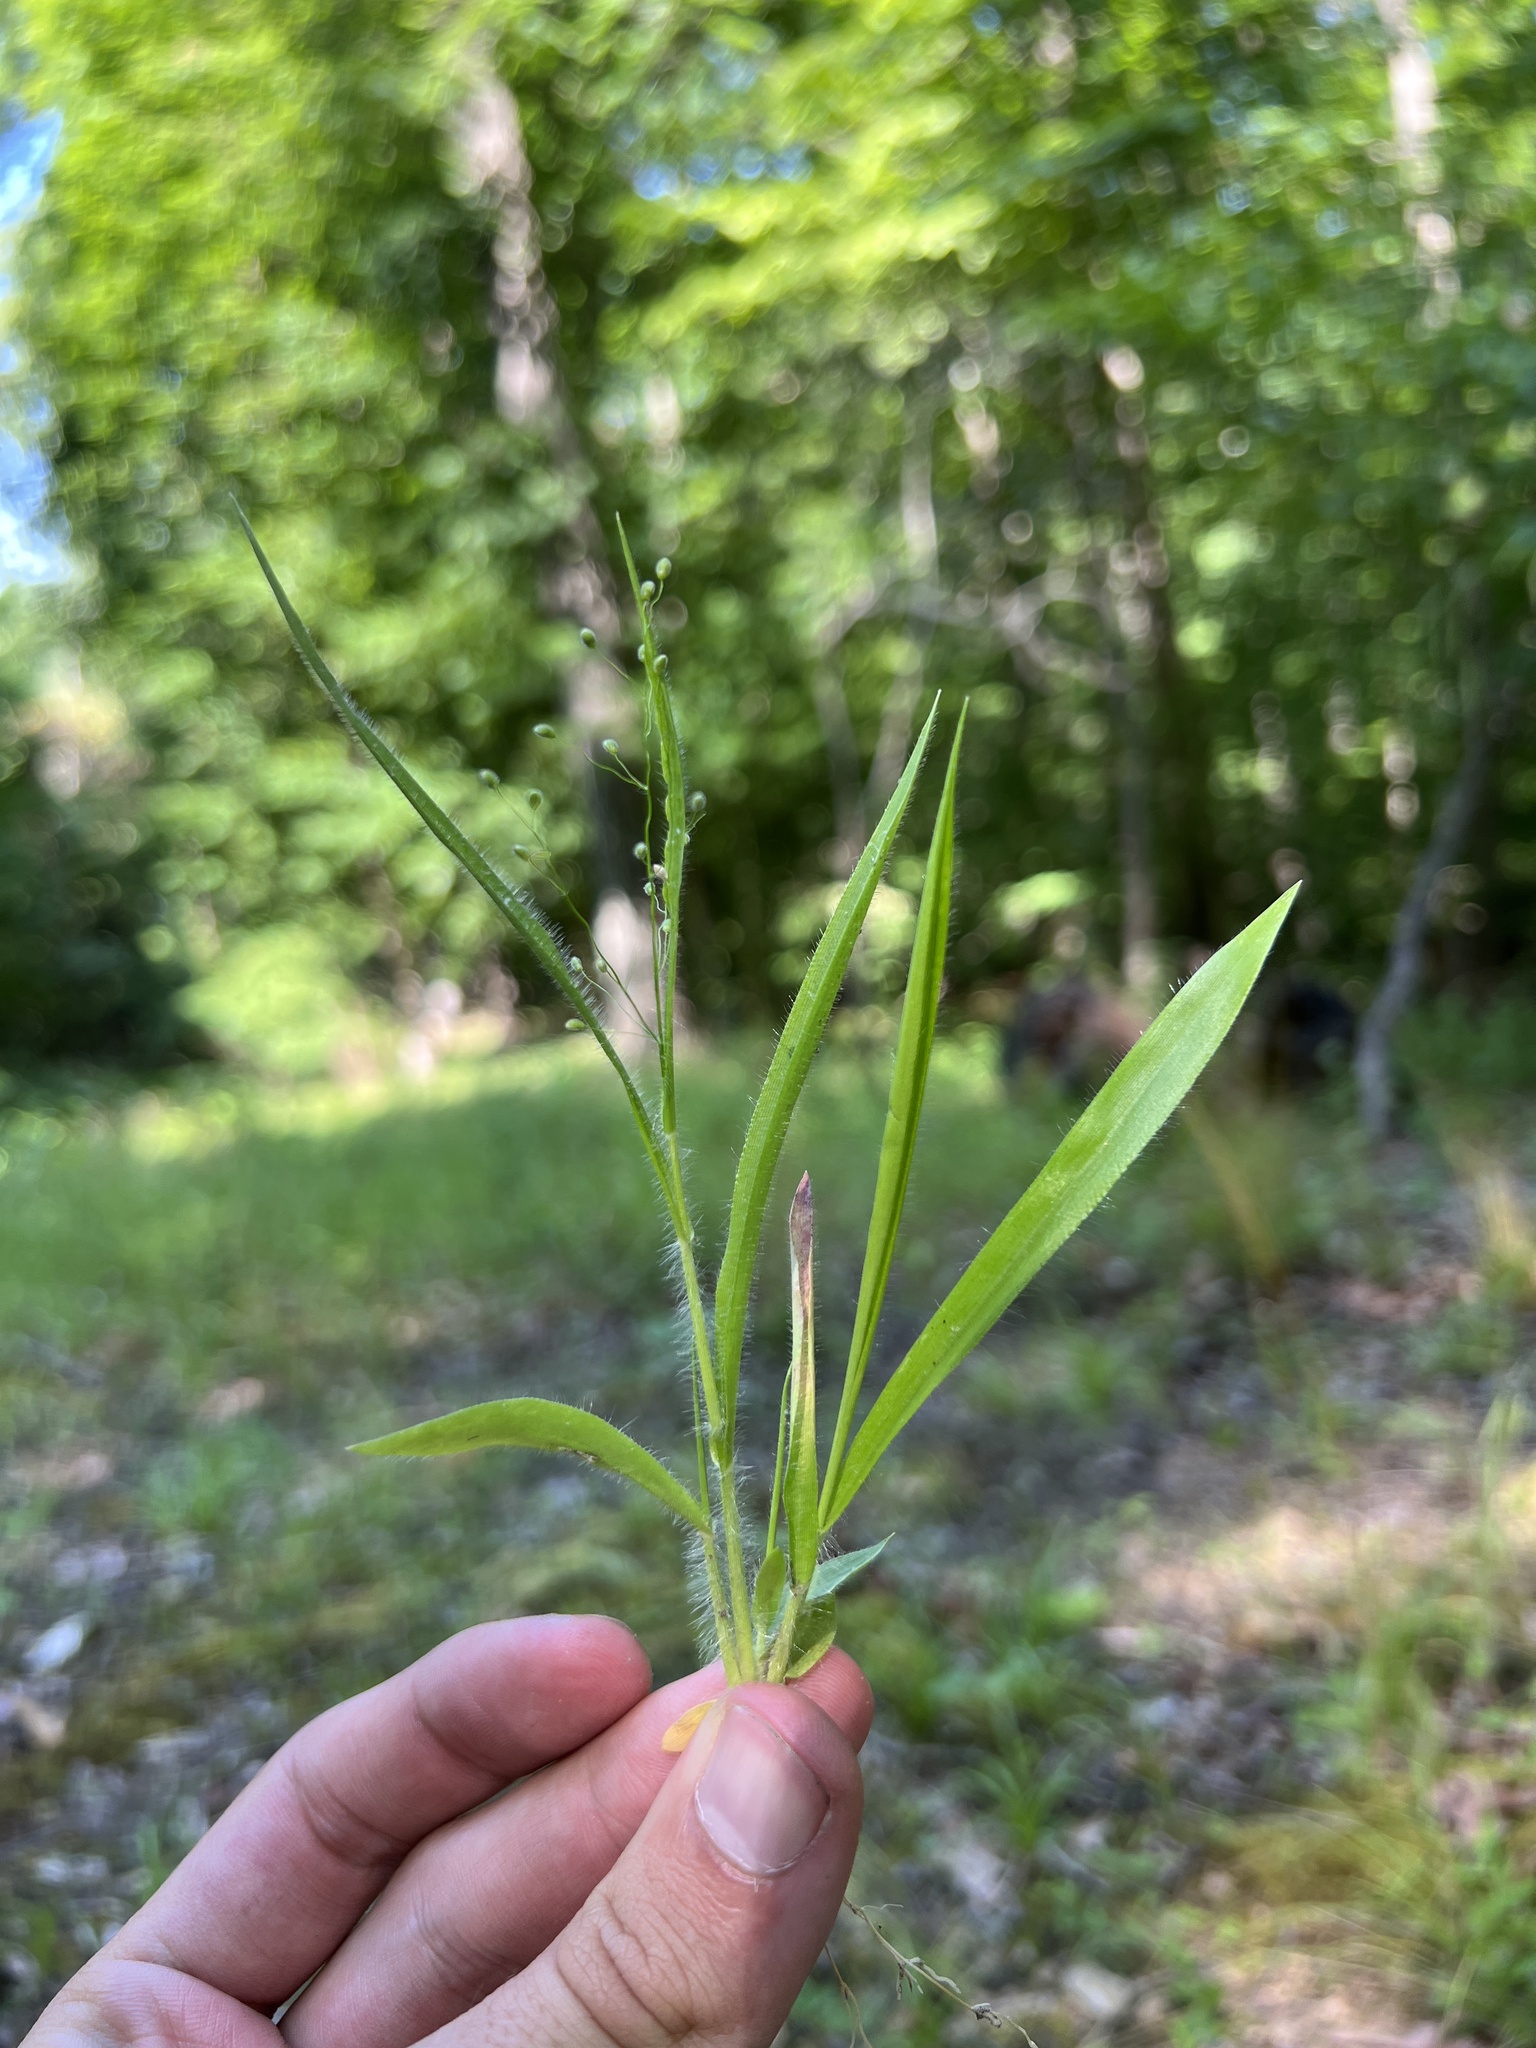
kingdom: Plantae
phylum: Tracheophyta
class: Liliopsida
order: Poales
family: Poaceae
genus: Dichanthelium
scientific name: Dichanthelium laxiflorum
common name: Soft-tuft panic grass
